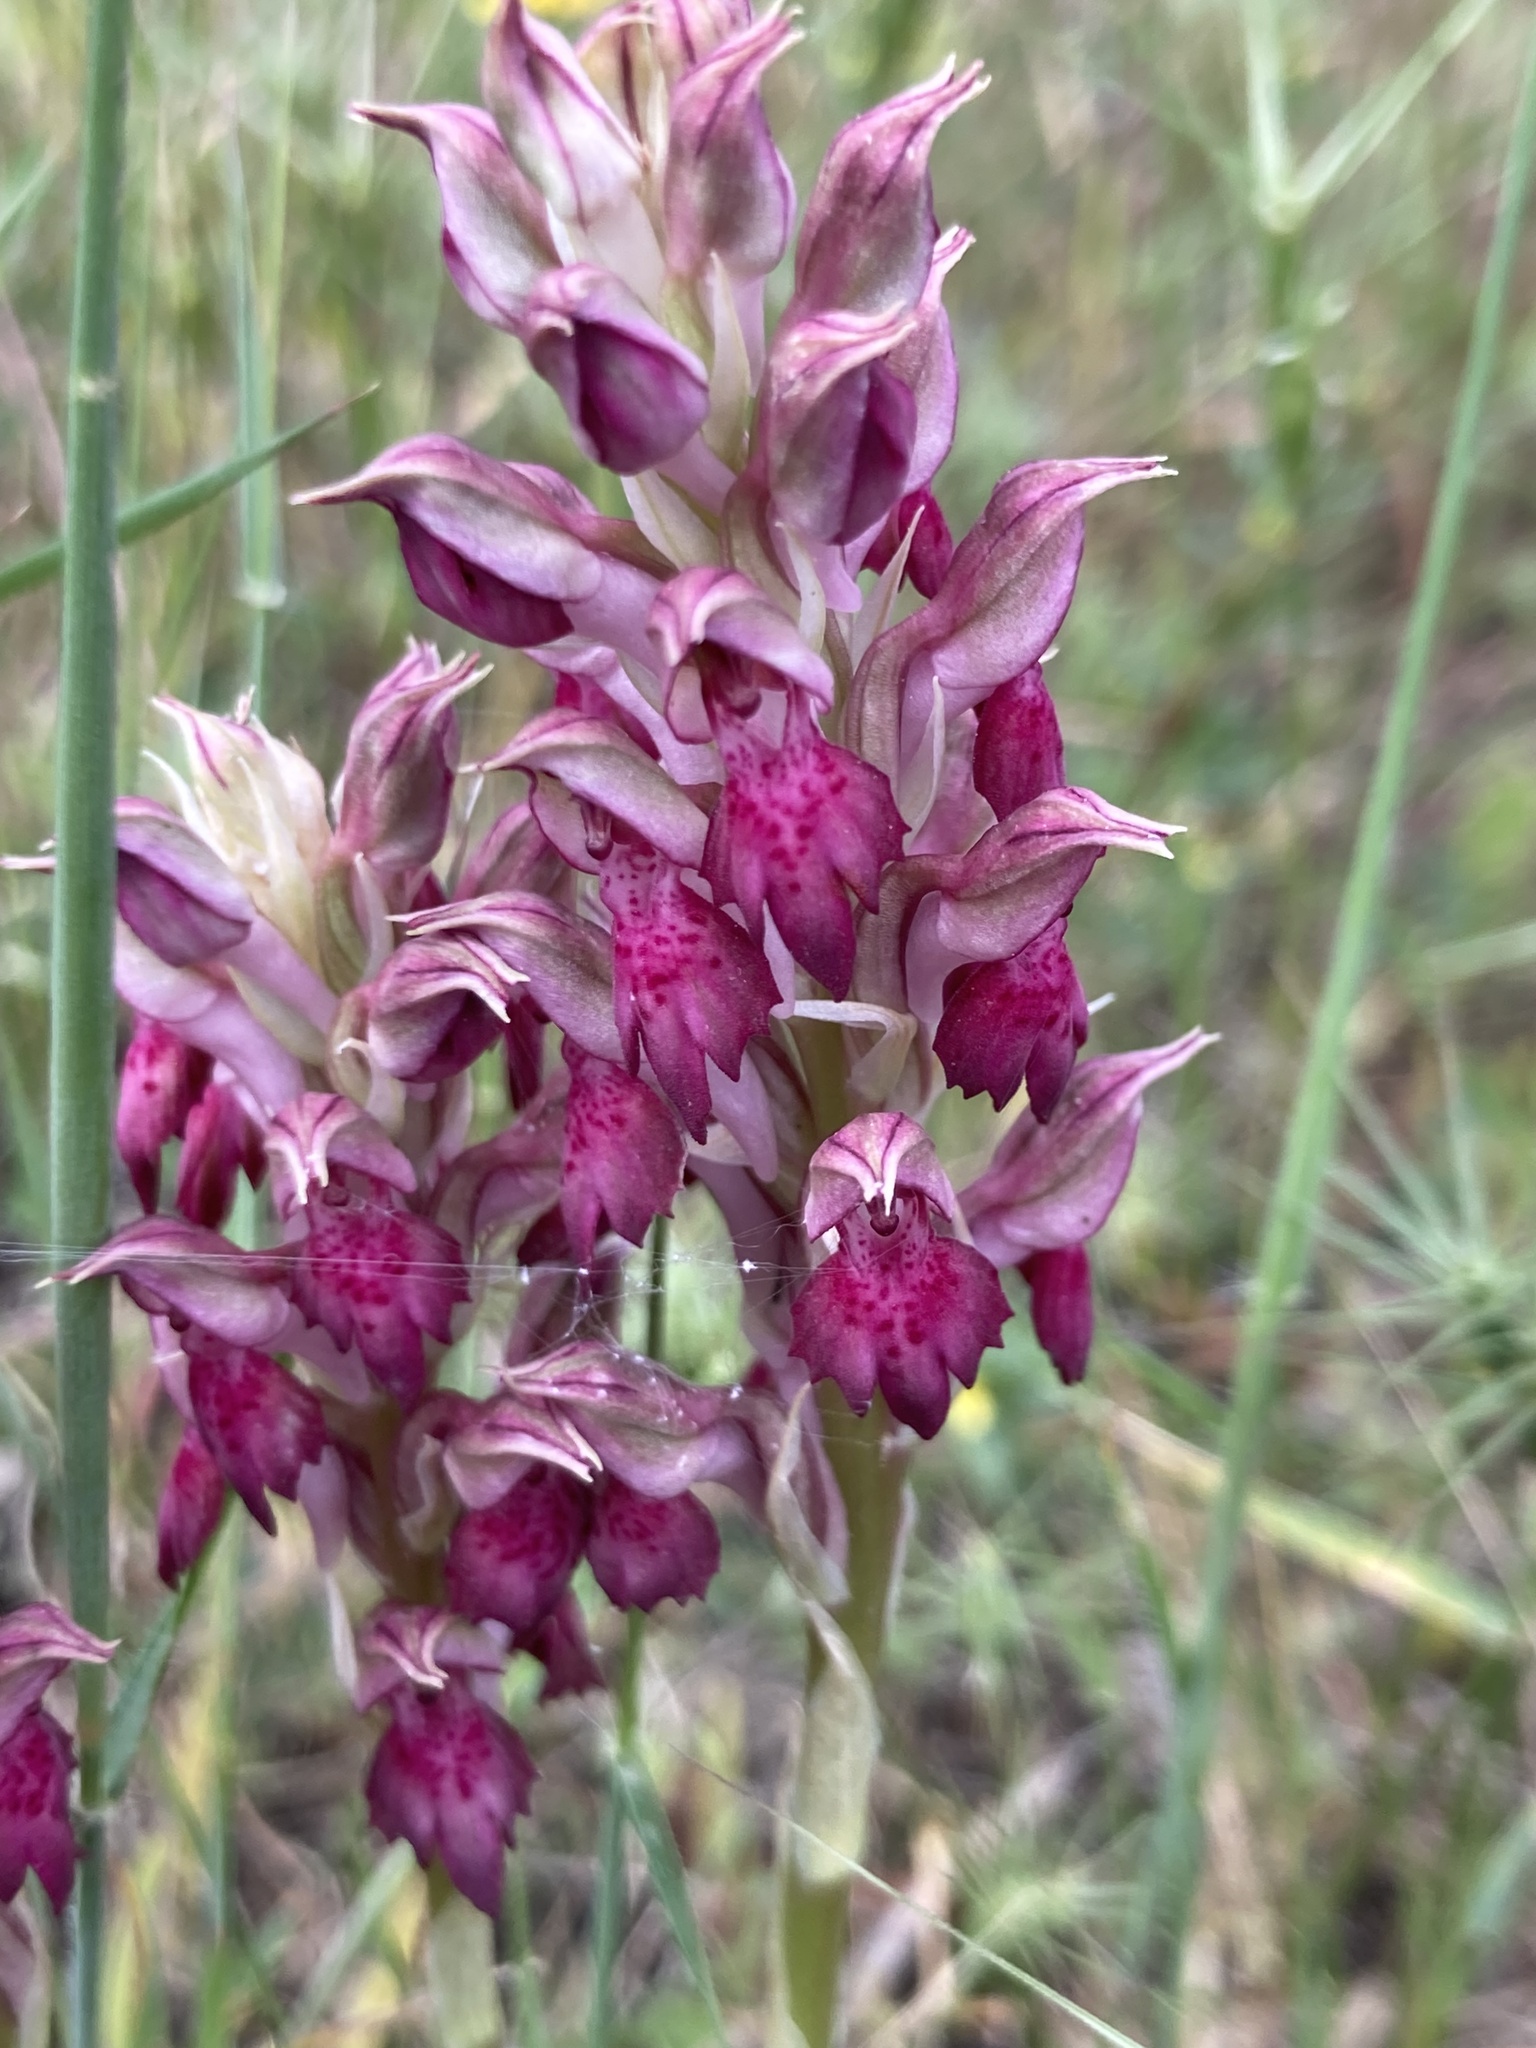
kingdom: Plantae
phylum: Tracheophyta
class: Liliopsida
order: Asparagales
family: Orchidaceae
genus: Orchis
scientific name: Orchis kallithea
